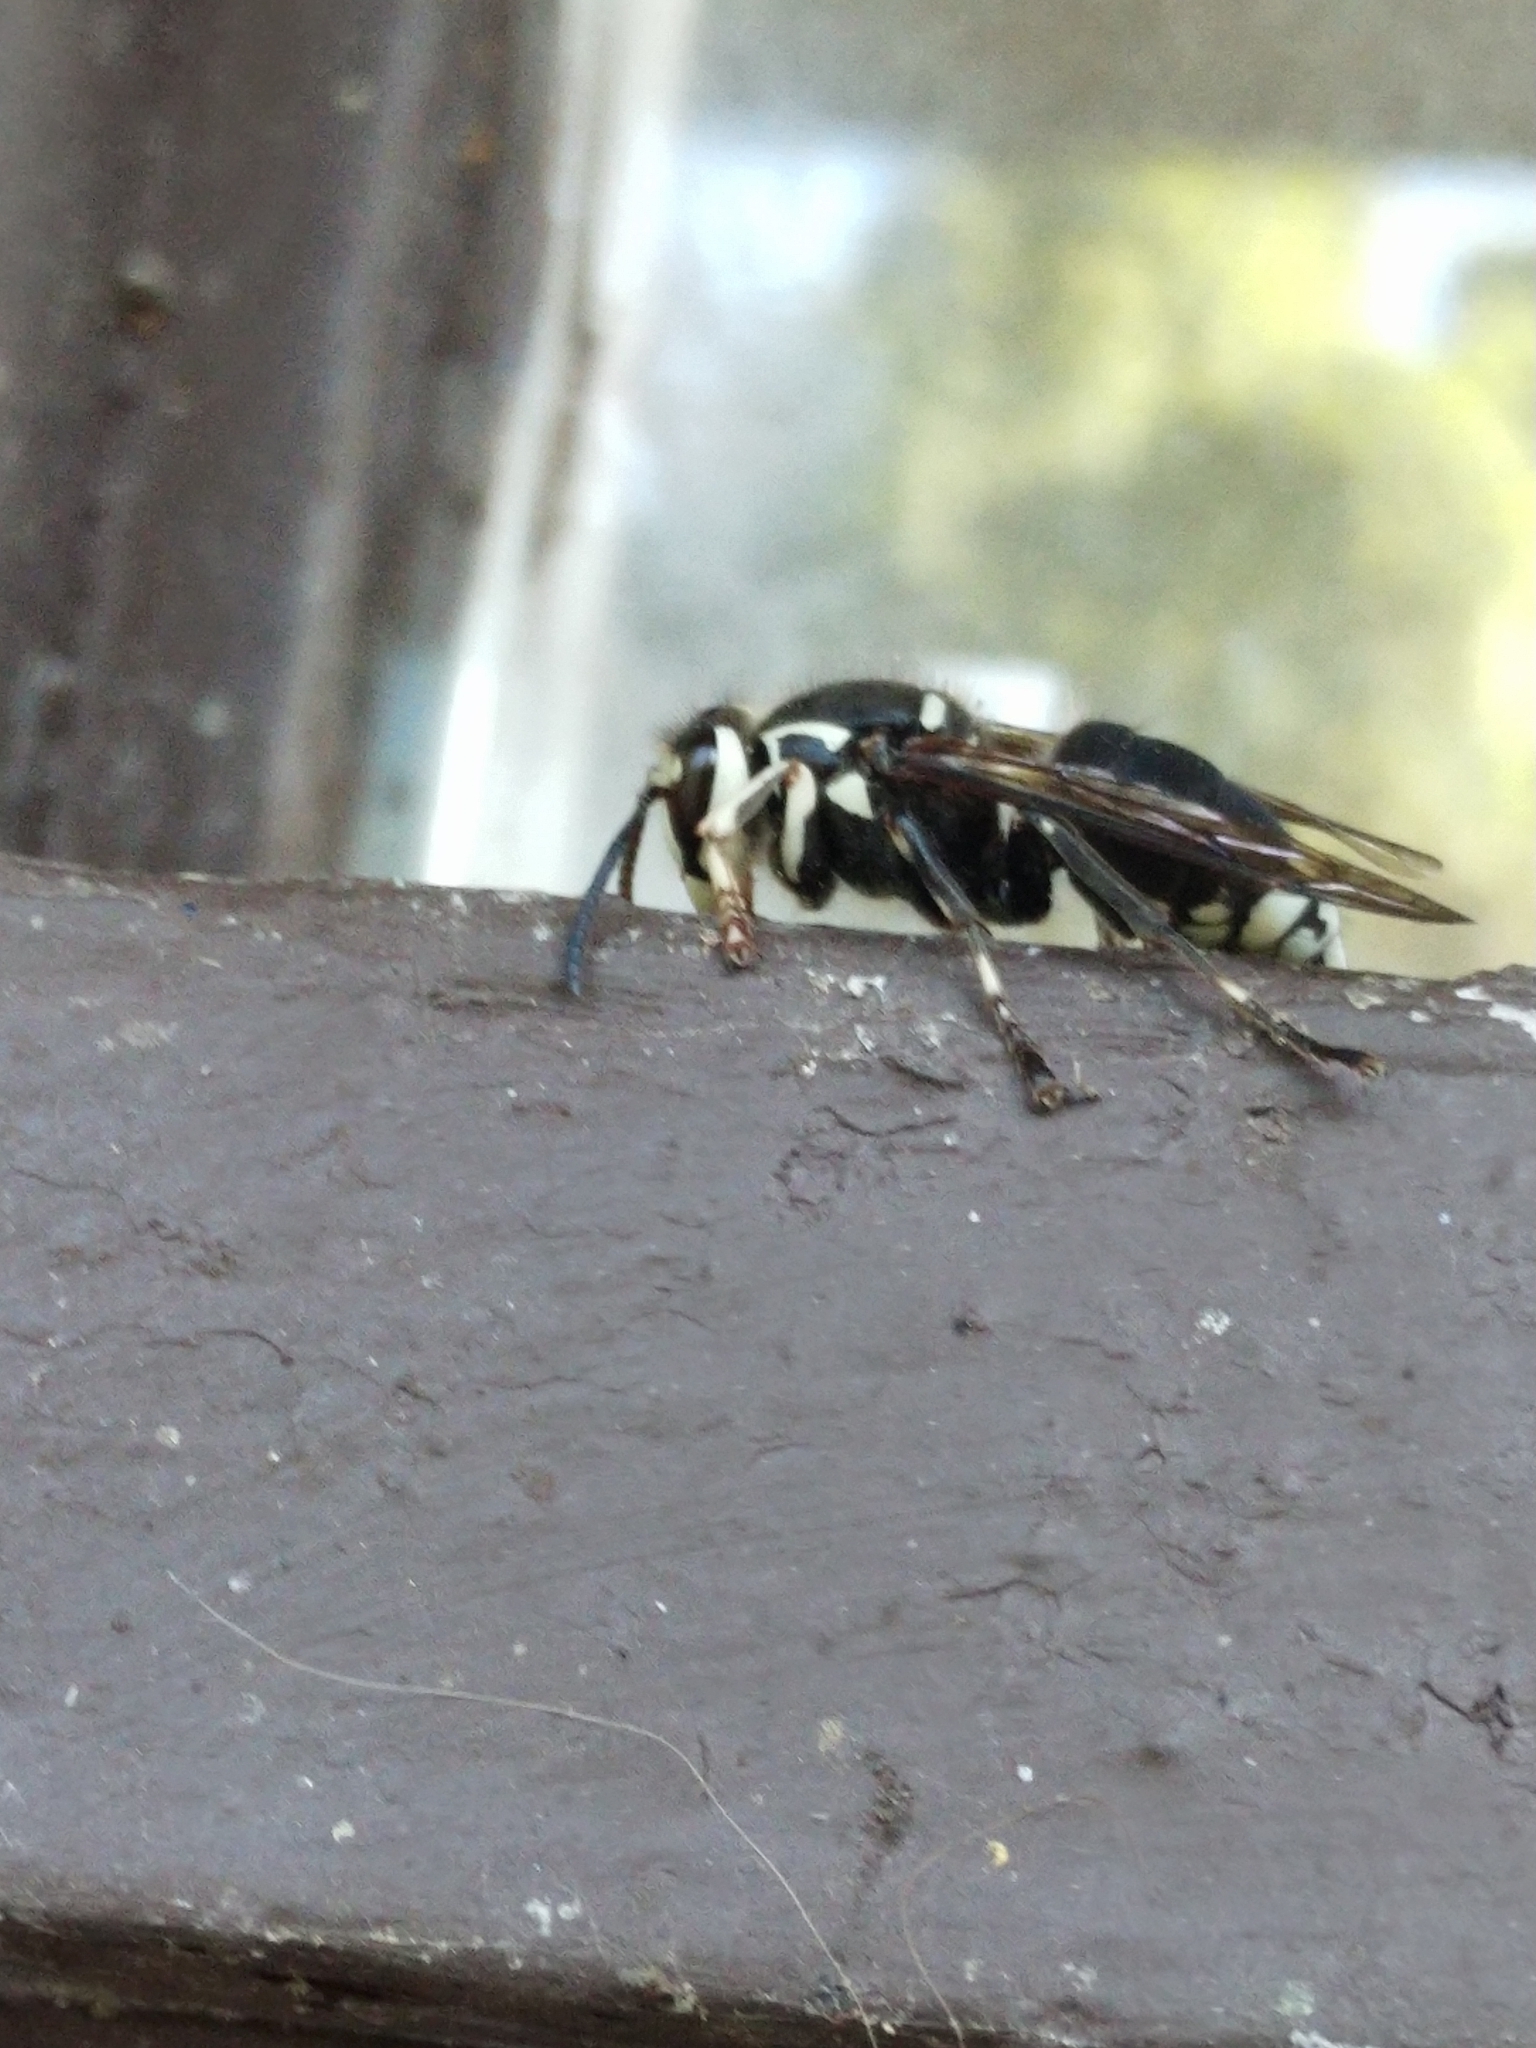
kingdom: Animalia
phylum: Arthropoda
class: Insecta
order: Hymenoptera
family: Vespidae
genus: Dolichovespula
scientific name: Dolichovespula maculata
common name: Bald-faced hornet
